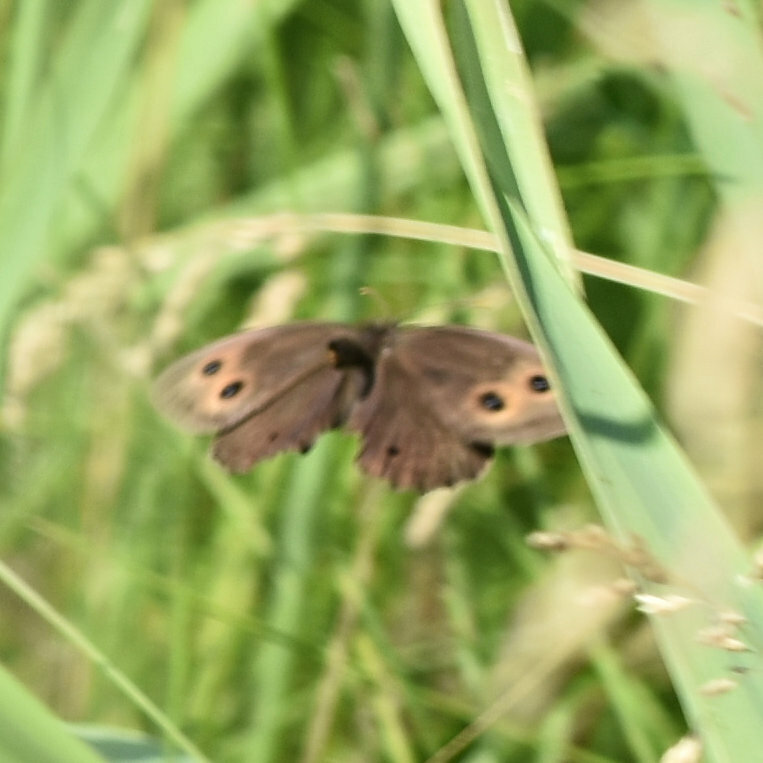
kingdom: Animalia
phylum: Arthropoda
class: Insecta
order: Lepidoptera
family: Nymphalidae
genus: Cercyonis
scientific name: Cercyonis pegala
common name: Common wood-nymph
